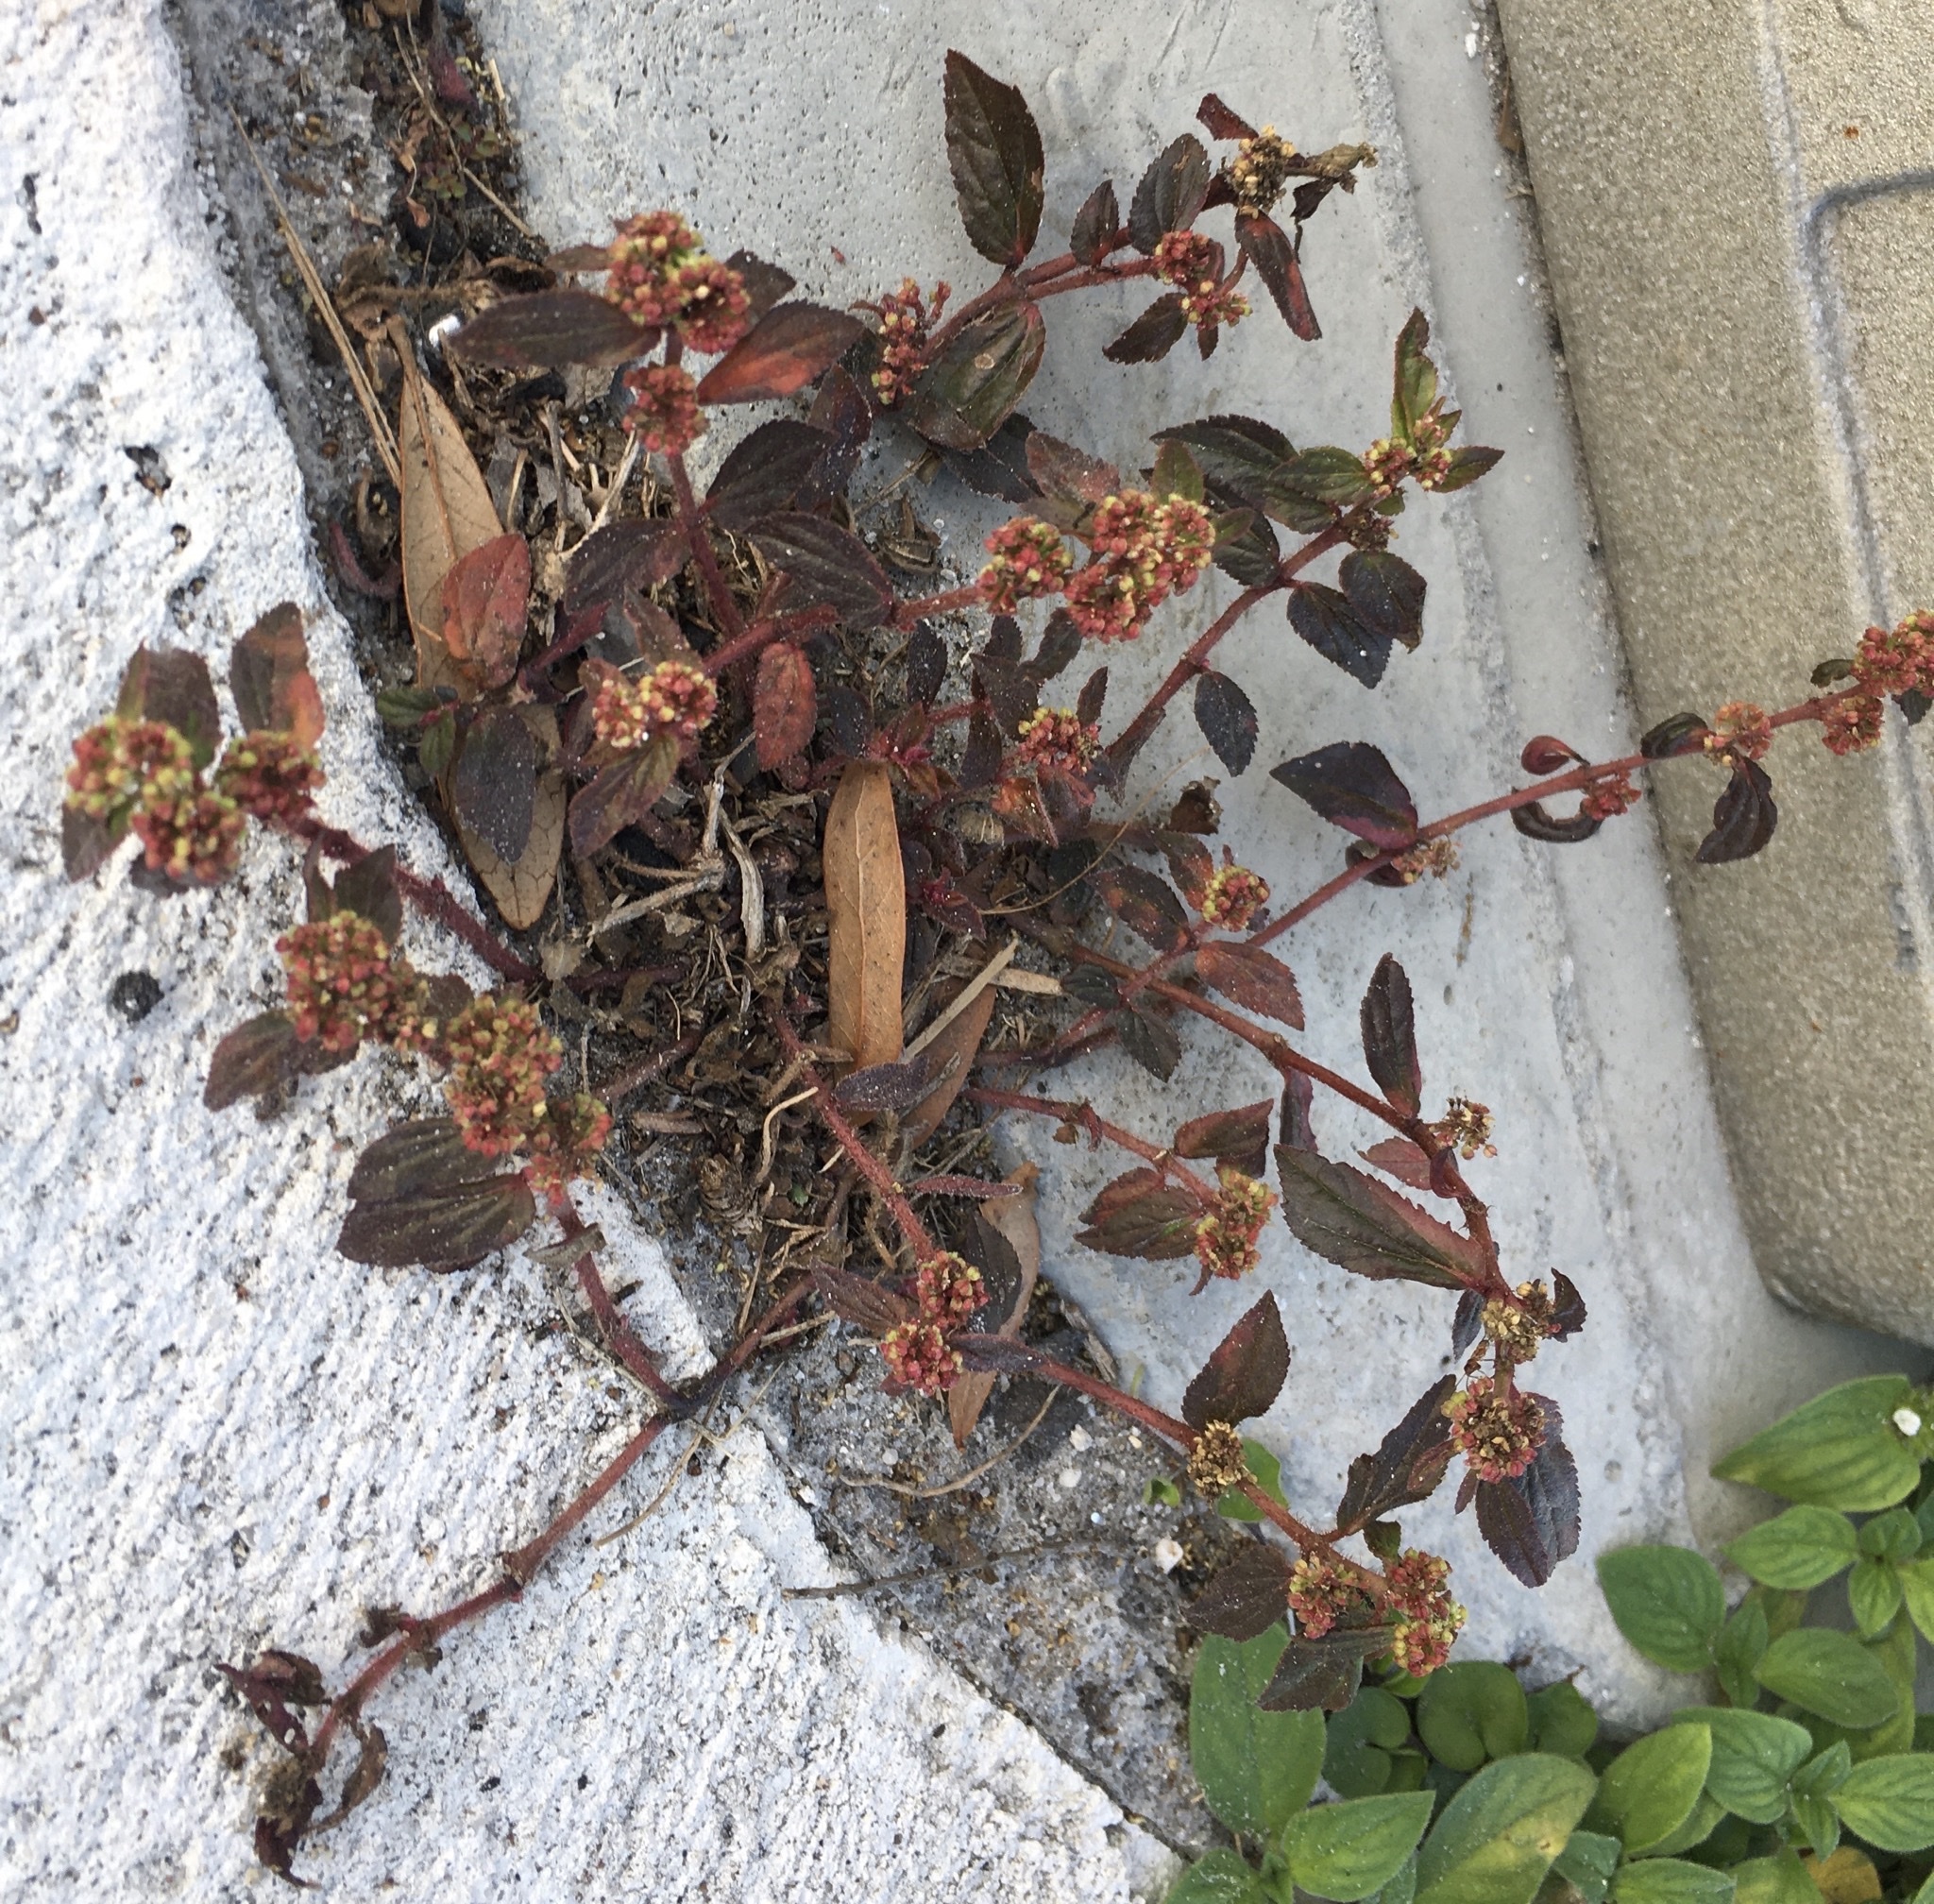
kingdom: Plantae
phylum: Tracheophyta
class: Magnoliopsida
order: Malpighiales
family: Euphorbiaceae
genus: Euphorbia
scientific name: Euphorbia hirta
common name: Pillpod sandmat
